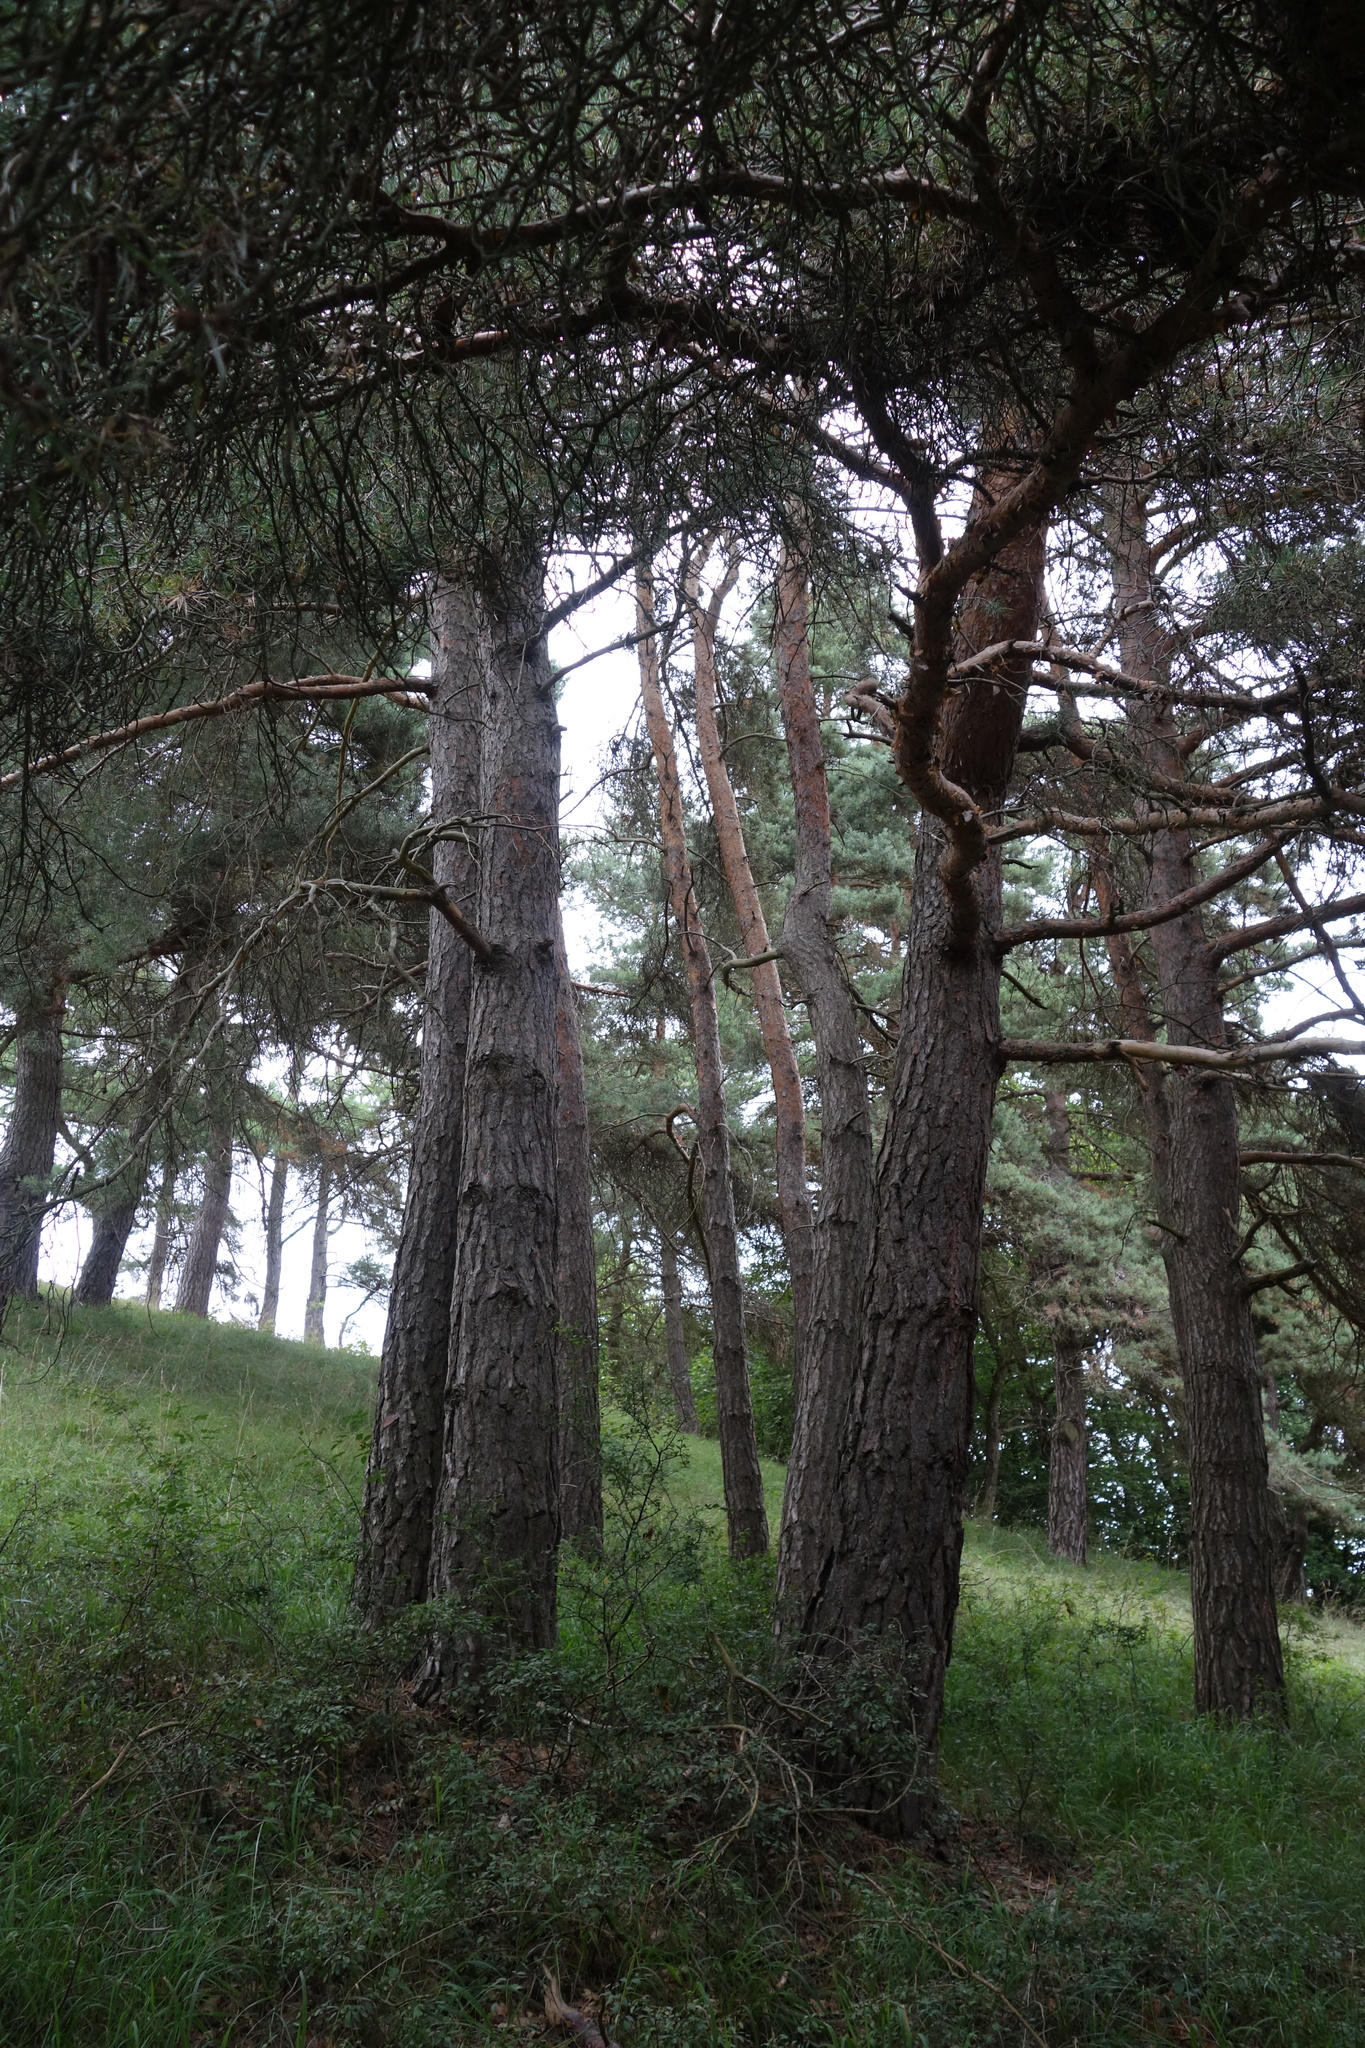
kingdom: Plantae
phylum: Tracheophyta
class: Pinopsida
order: Pinales
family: Pinaceae
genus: Pinus
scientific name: Pinus sylvestris
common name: Scots pine
